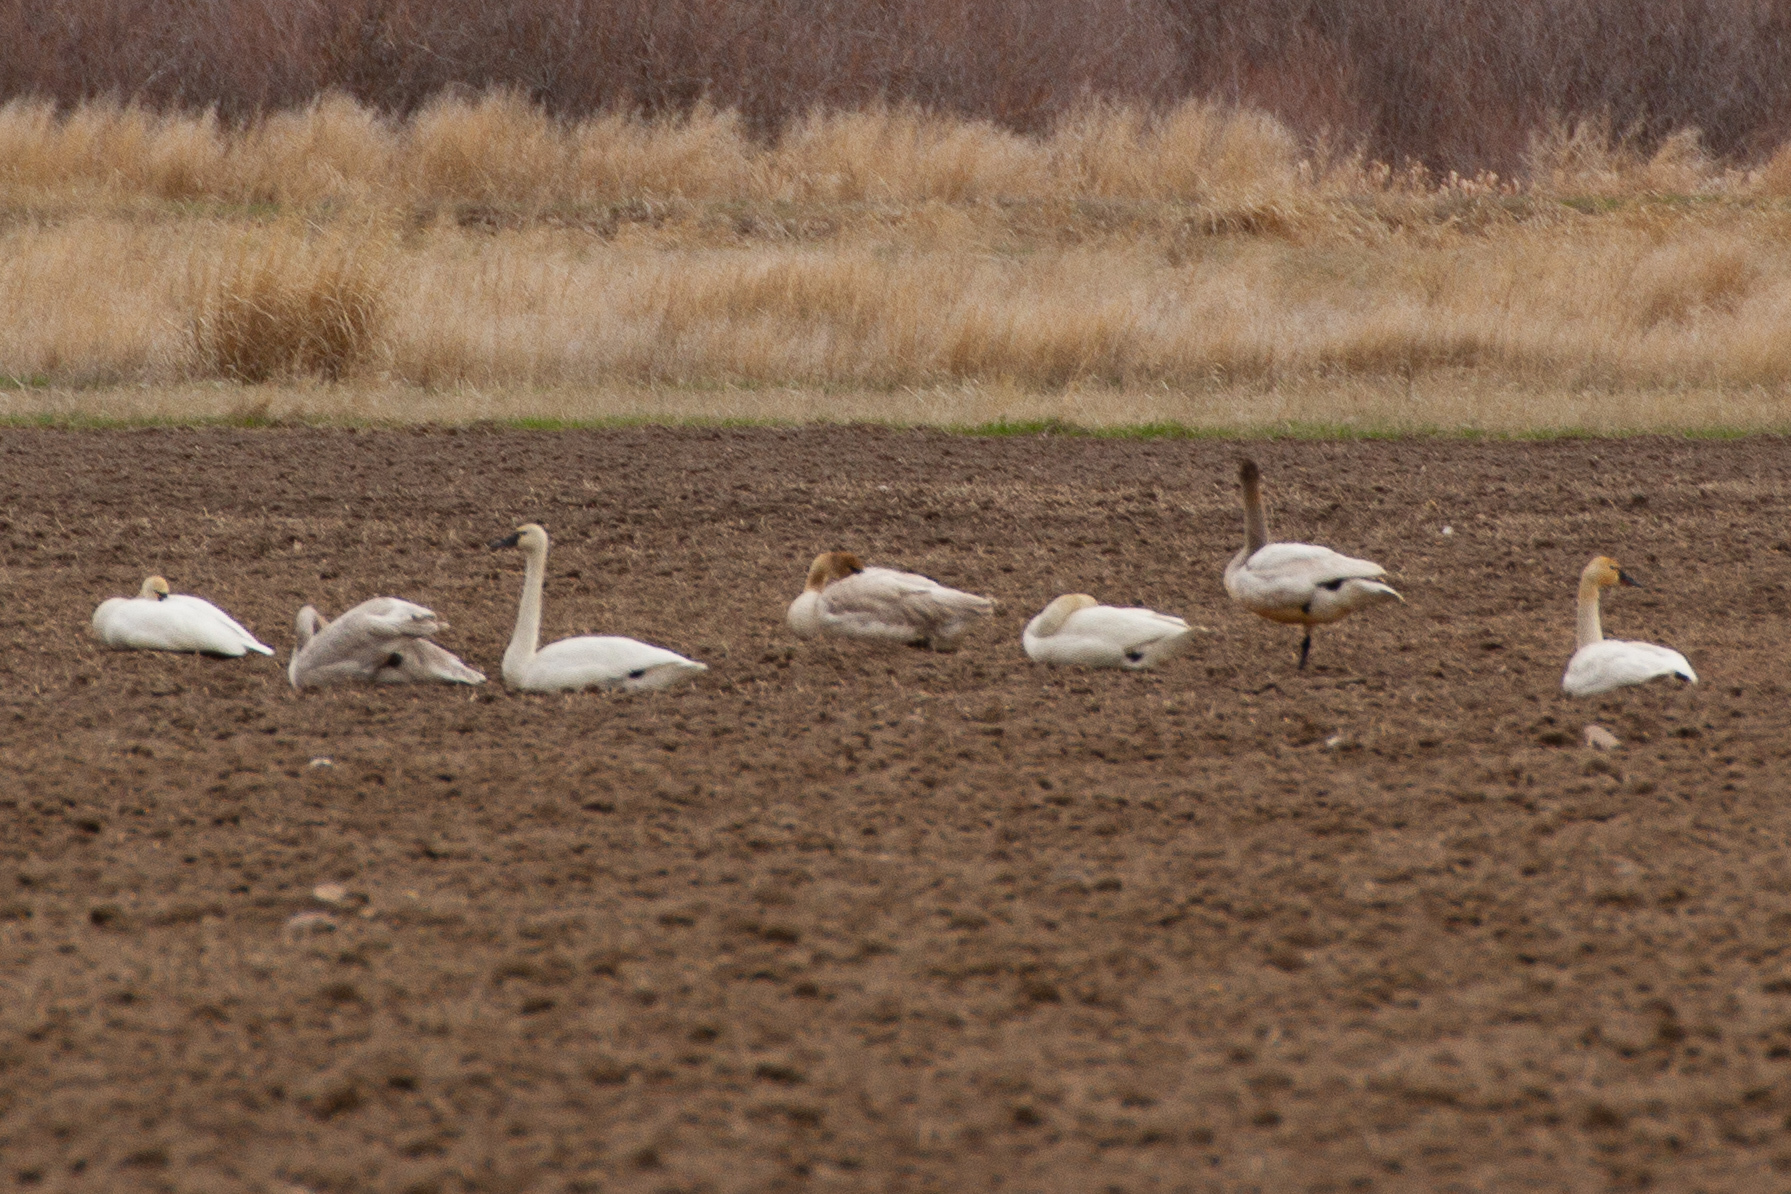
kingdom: Animalia
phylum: Chordata
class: Aves
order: Anseriformes
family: Anatidae
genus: Cygnus
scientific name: Cygnus columbianus
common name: Tundra swan
